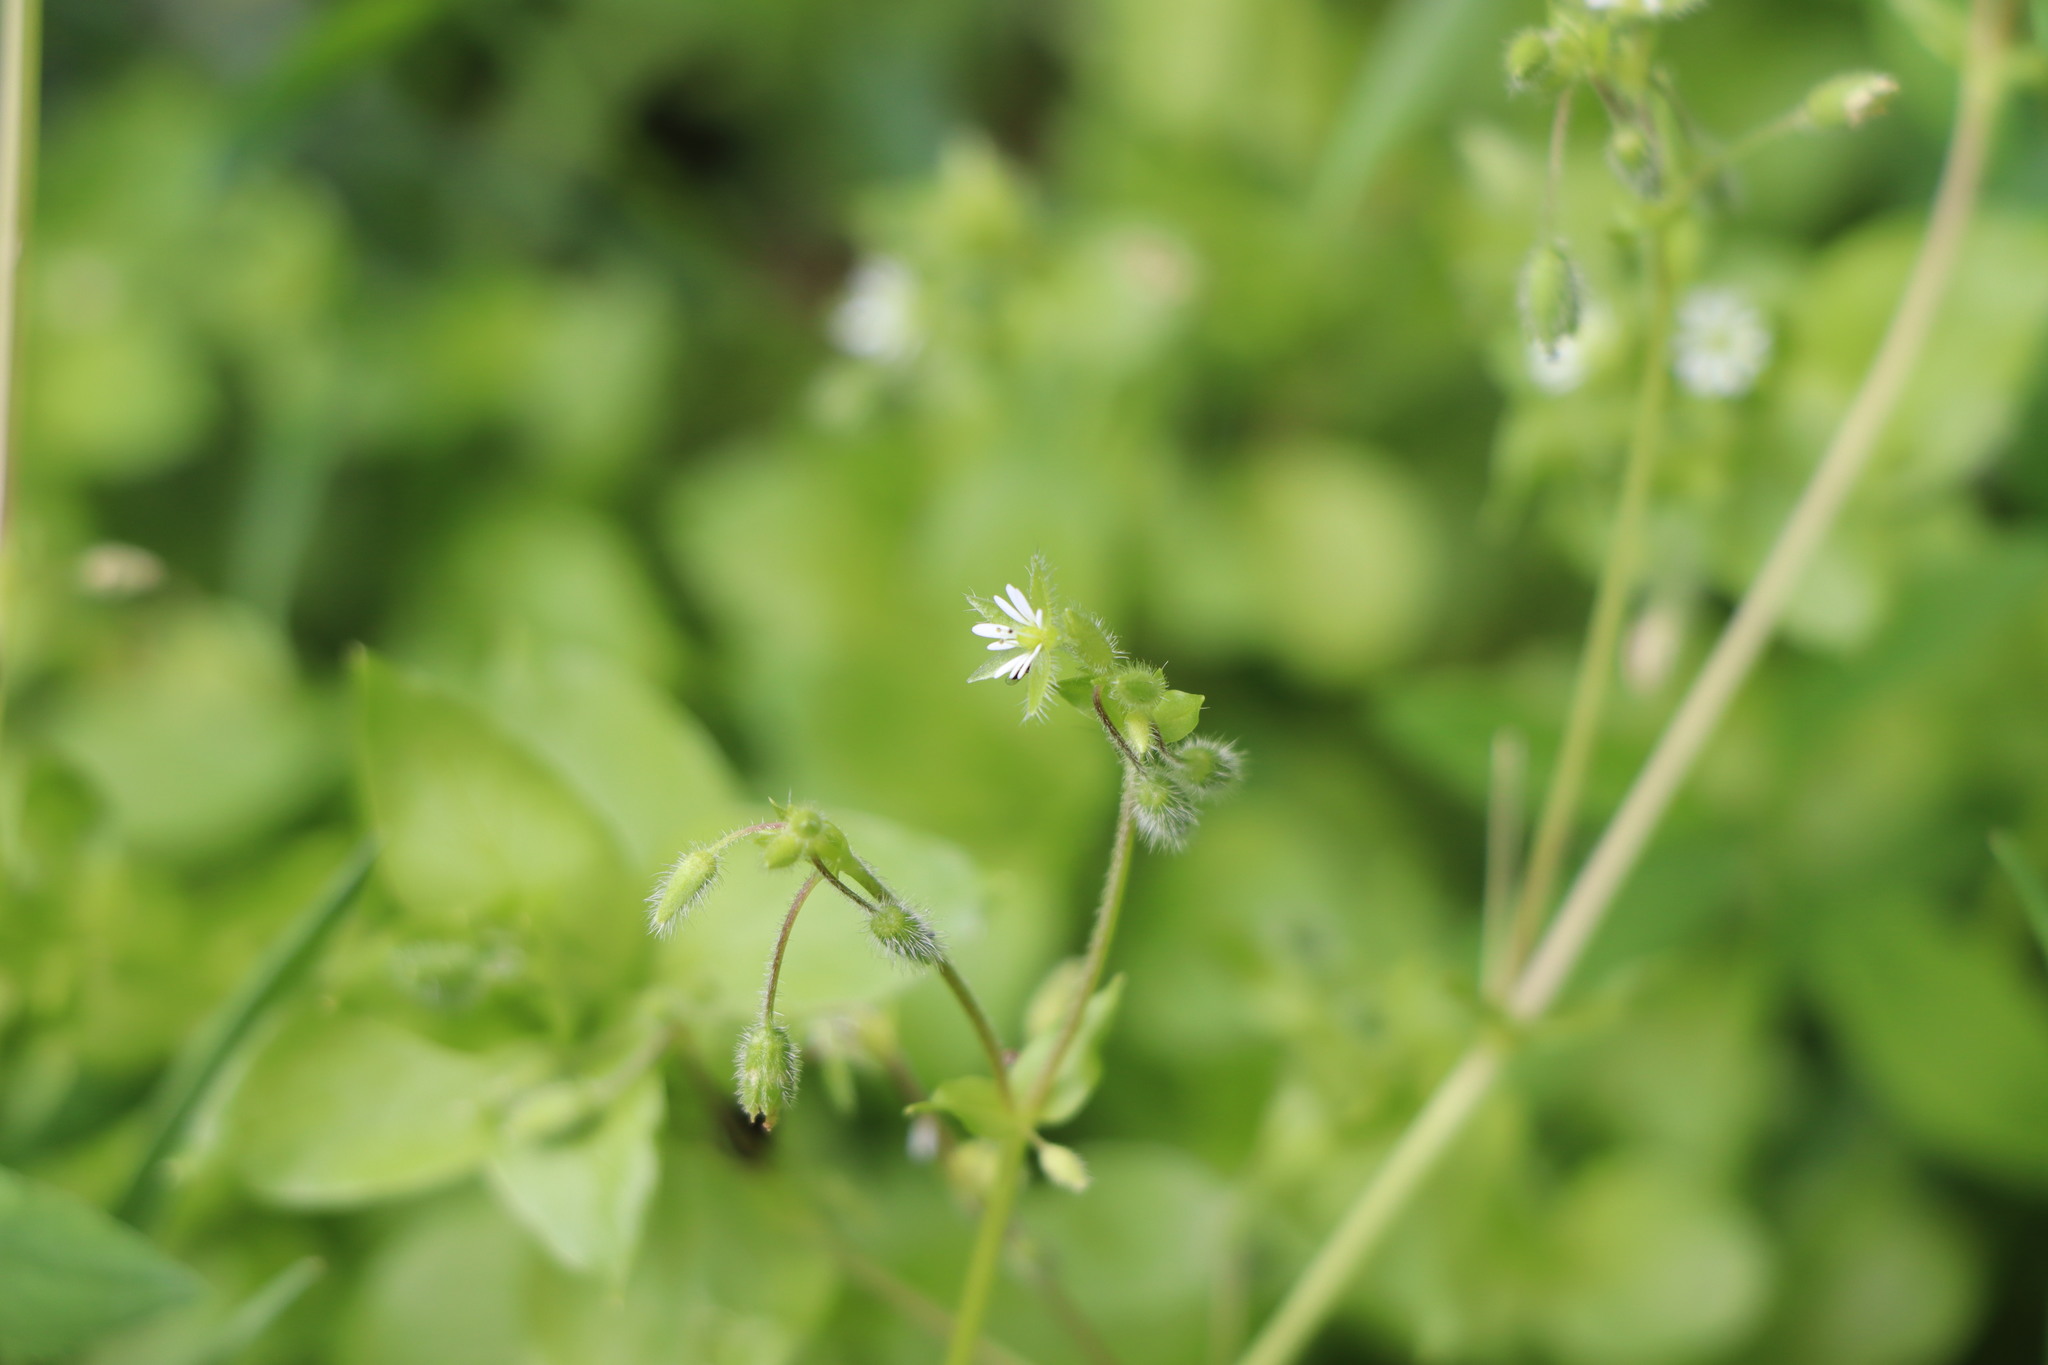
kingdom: Plantae
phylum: Tracheophyta
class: Magnoliopsida
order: Caryophyllales
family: Caryophyllaceae
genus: Stellaria
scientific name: Stellaria media
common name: Common chickweed
